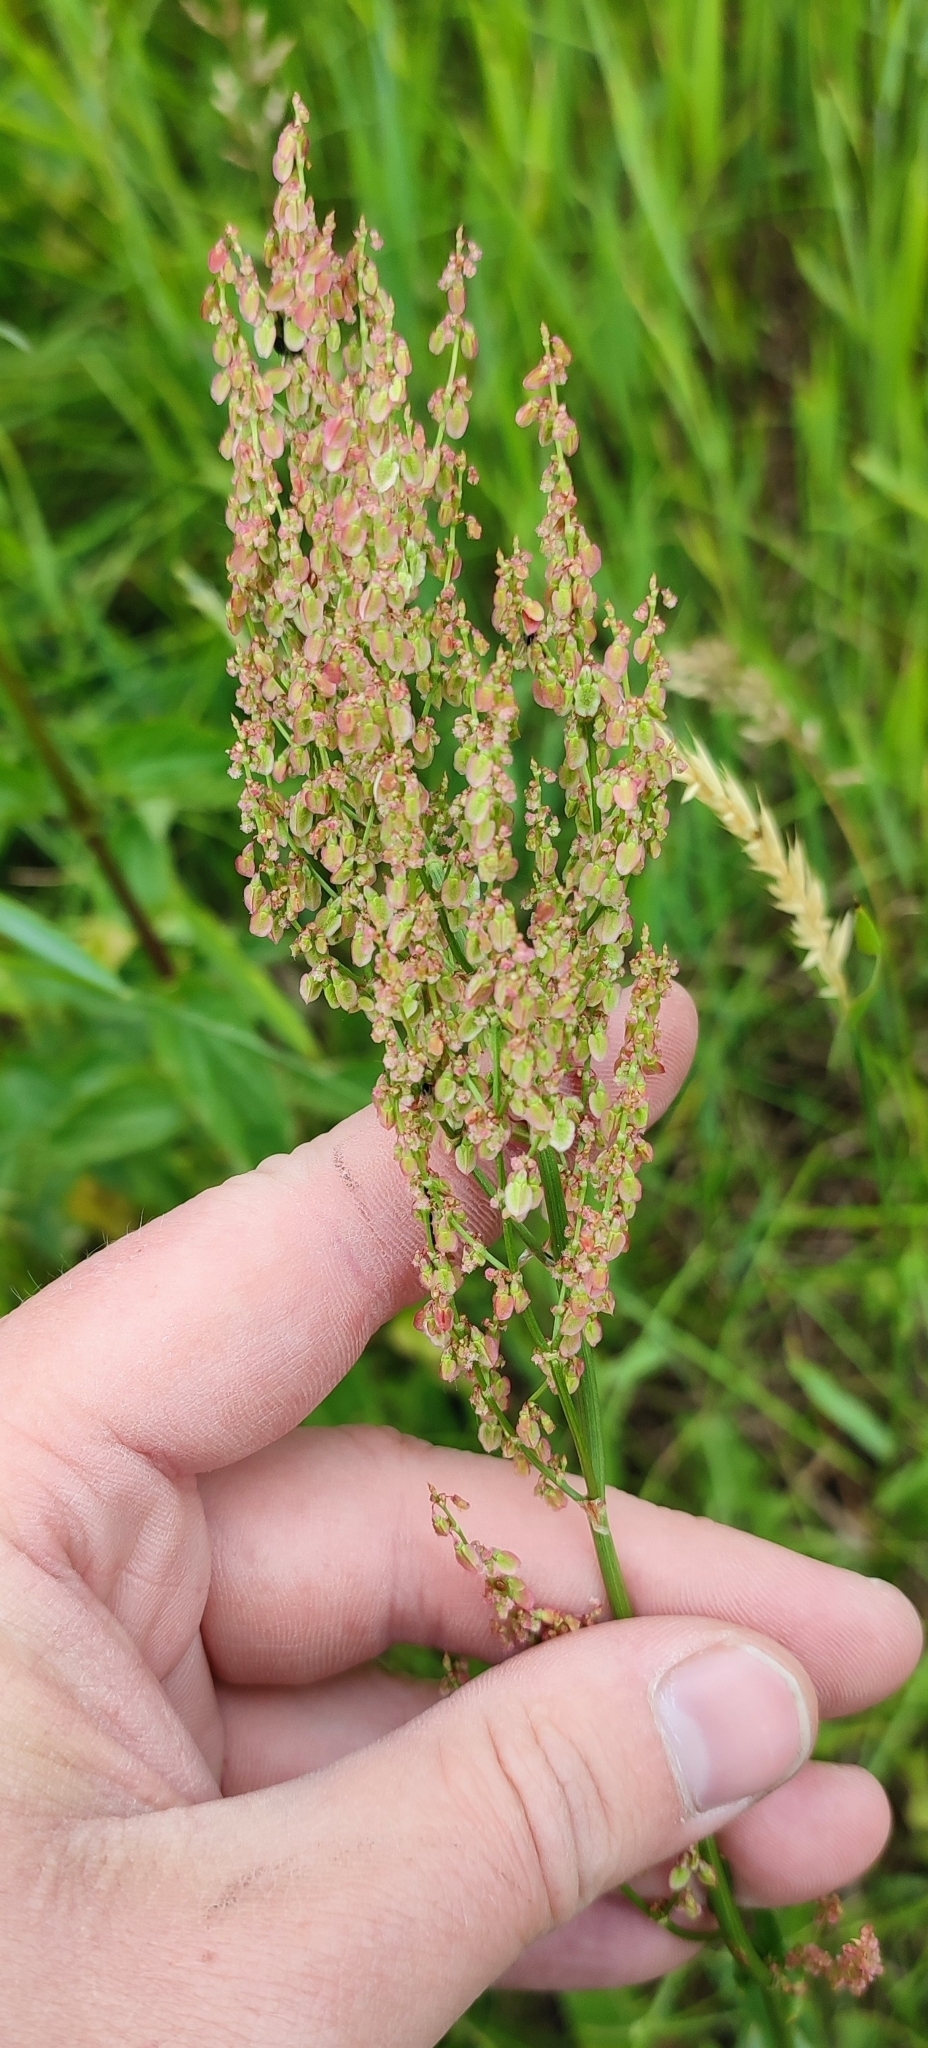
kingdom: Plantae
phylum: Tracheophyta
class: Magnoliopsida
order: Caryophyllales
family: Polygonaceae
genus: Rumex
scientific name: Rumex thyrsiflorus
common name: Garden sorrel
